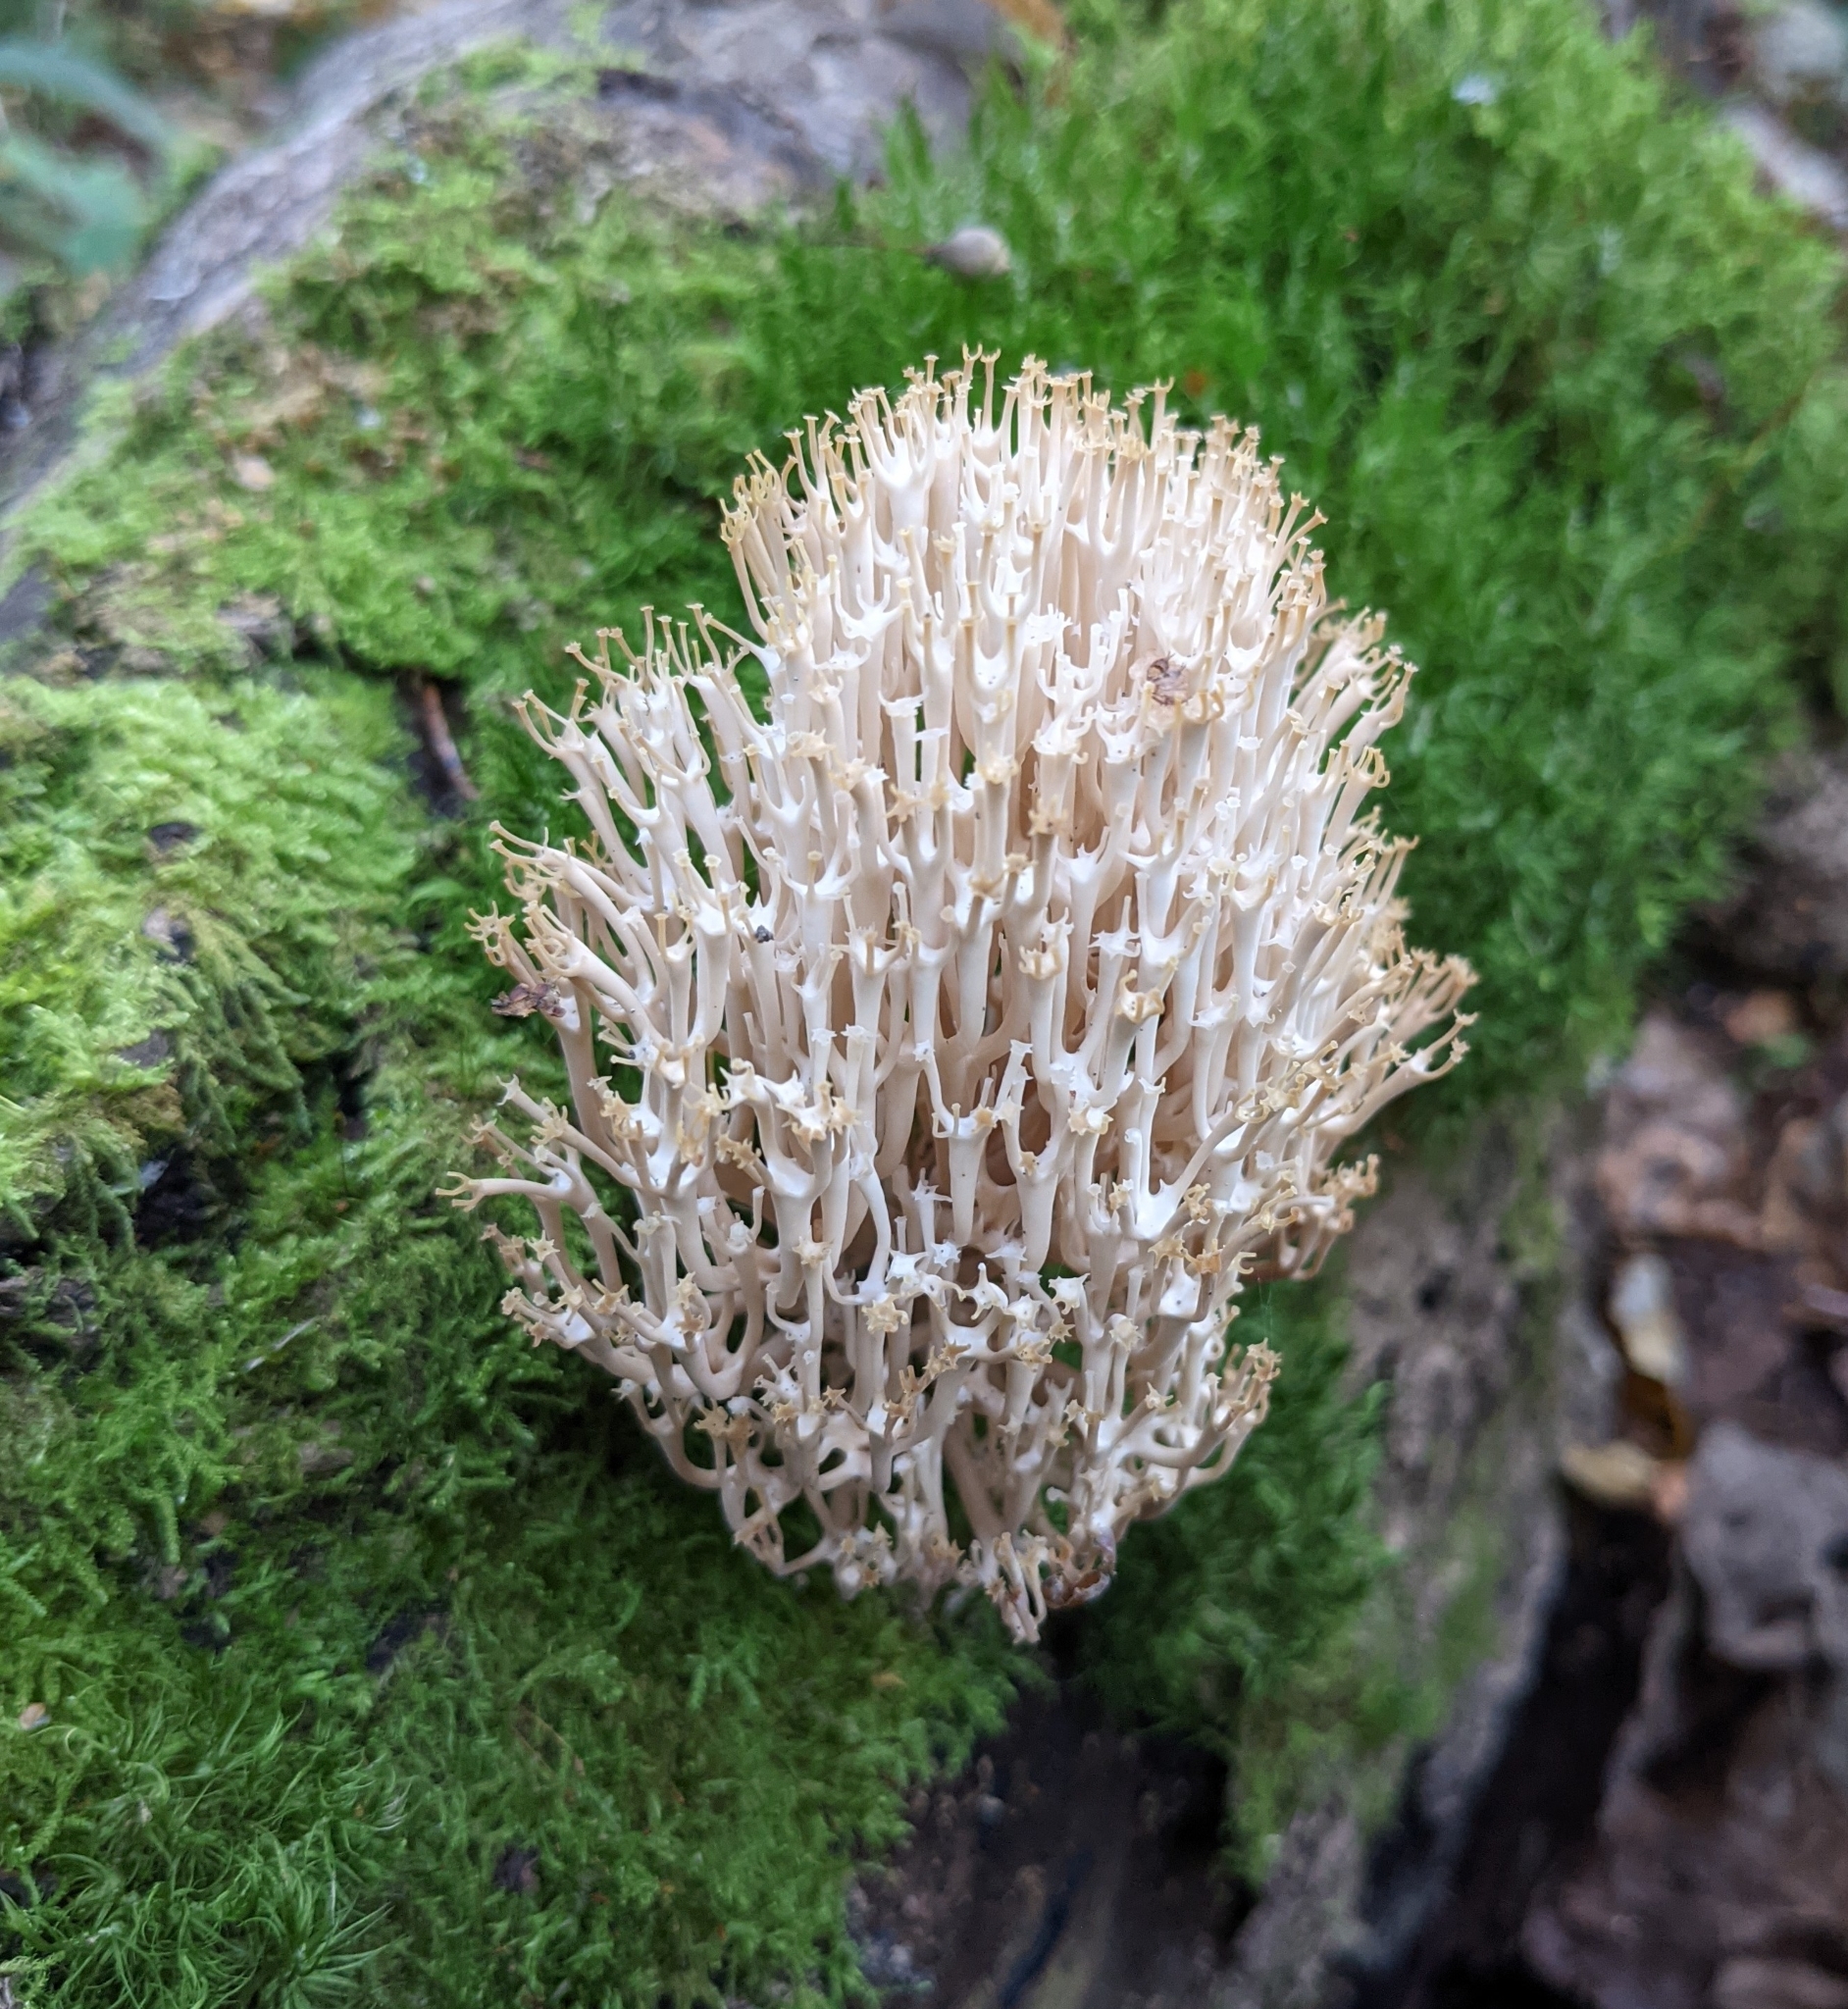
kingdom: Fungi
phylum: Basidiomycota
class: Agaricomycetes
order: Russulales
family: Auriscalpiaceae
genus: Artomyces
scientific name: Artomyces pyxidatus
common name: Crown-tipped coral fungus
